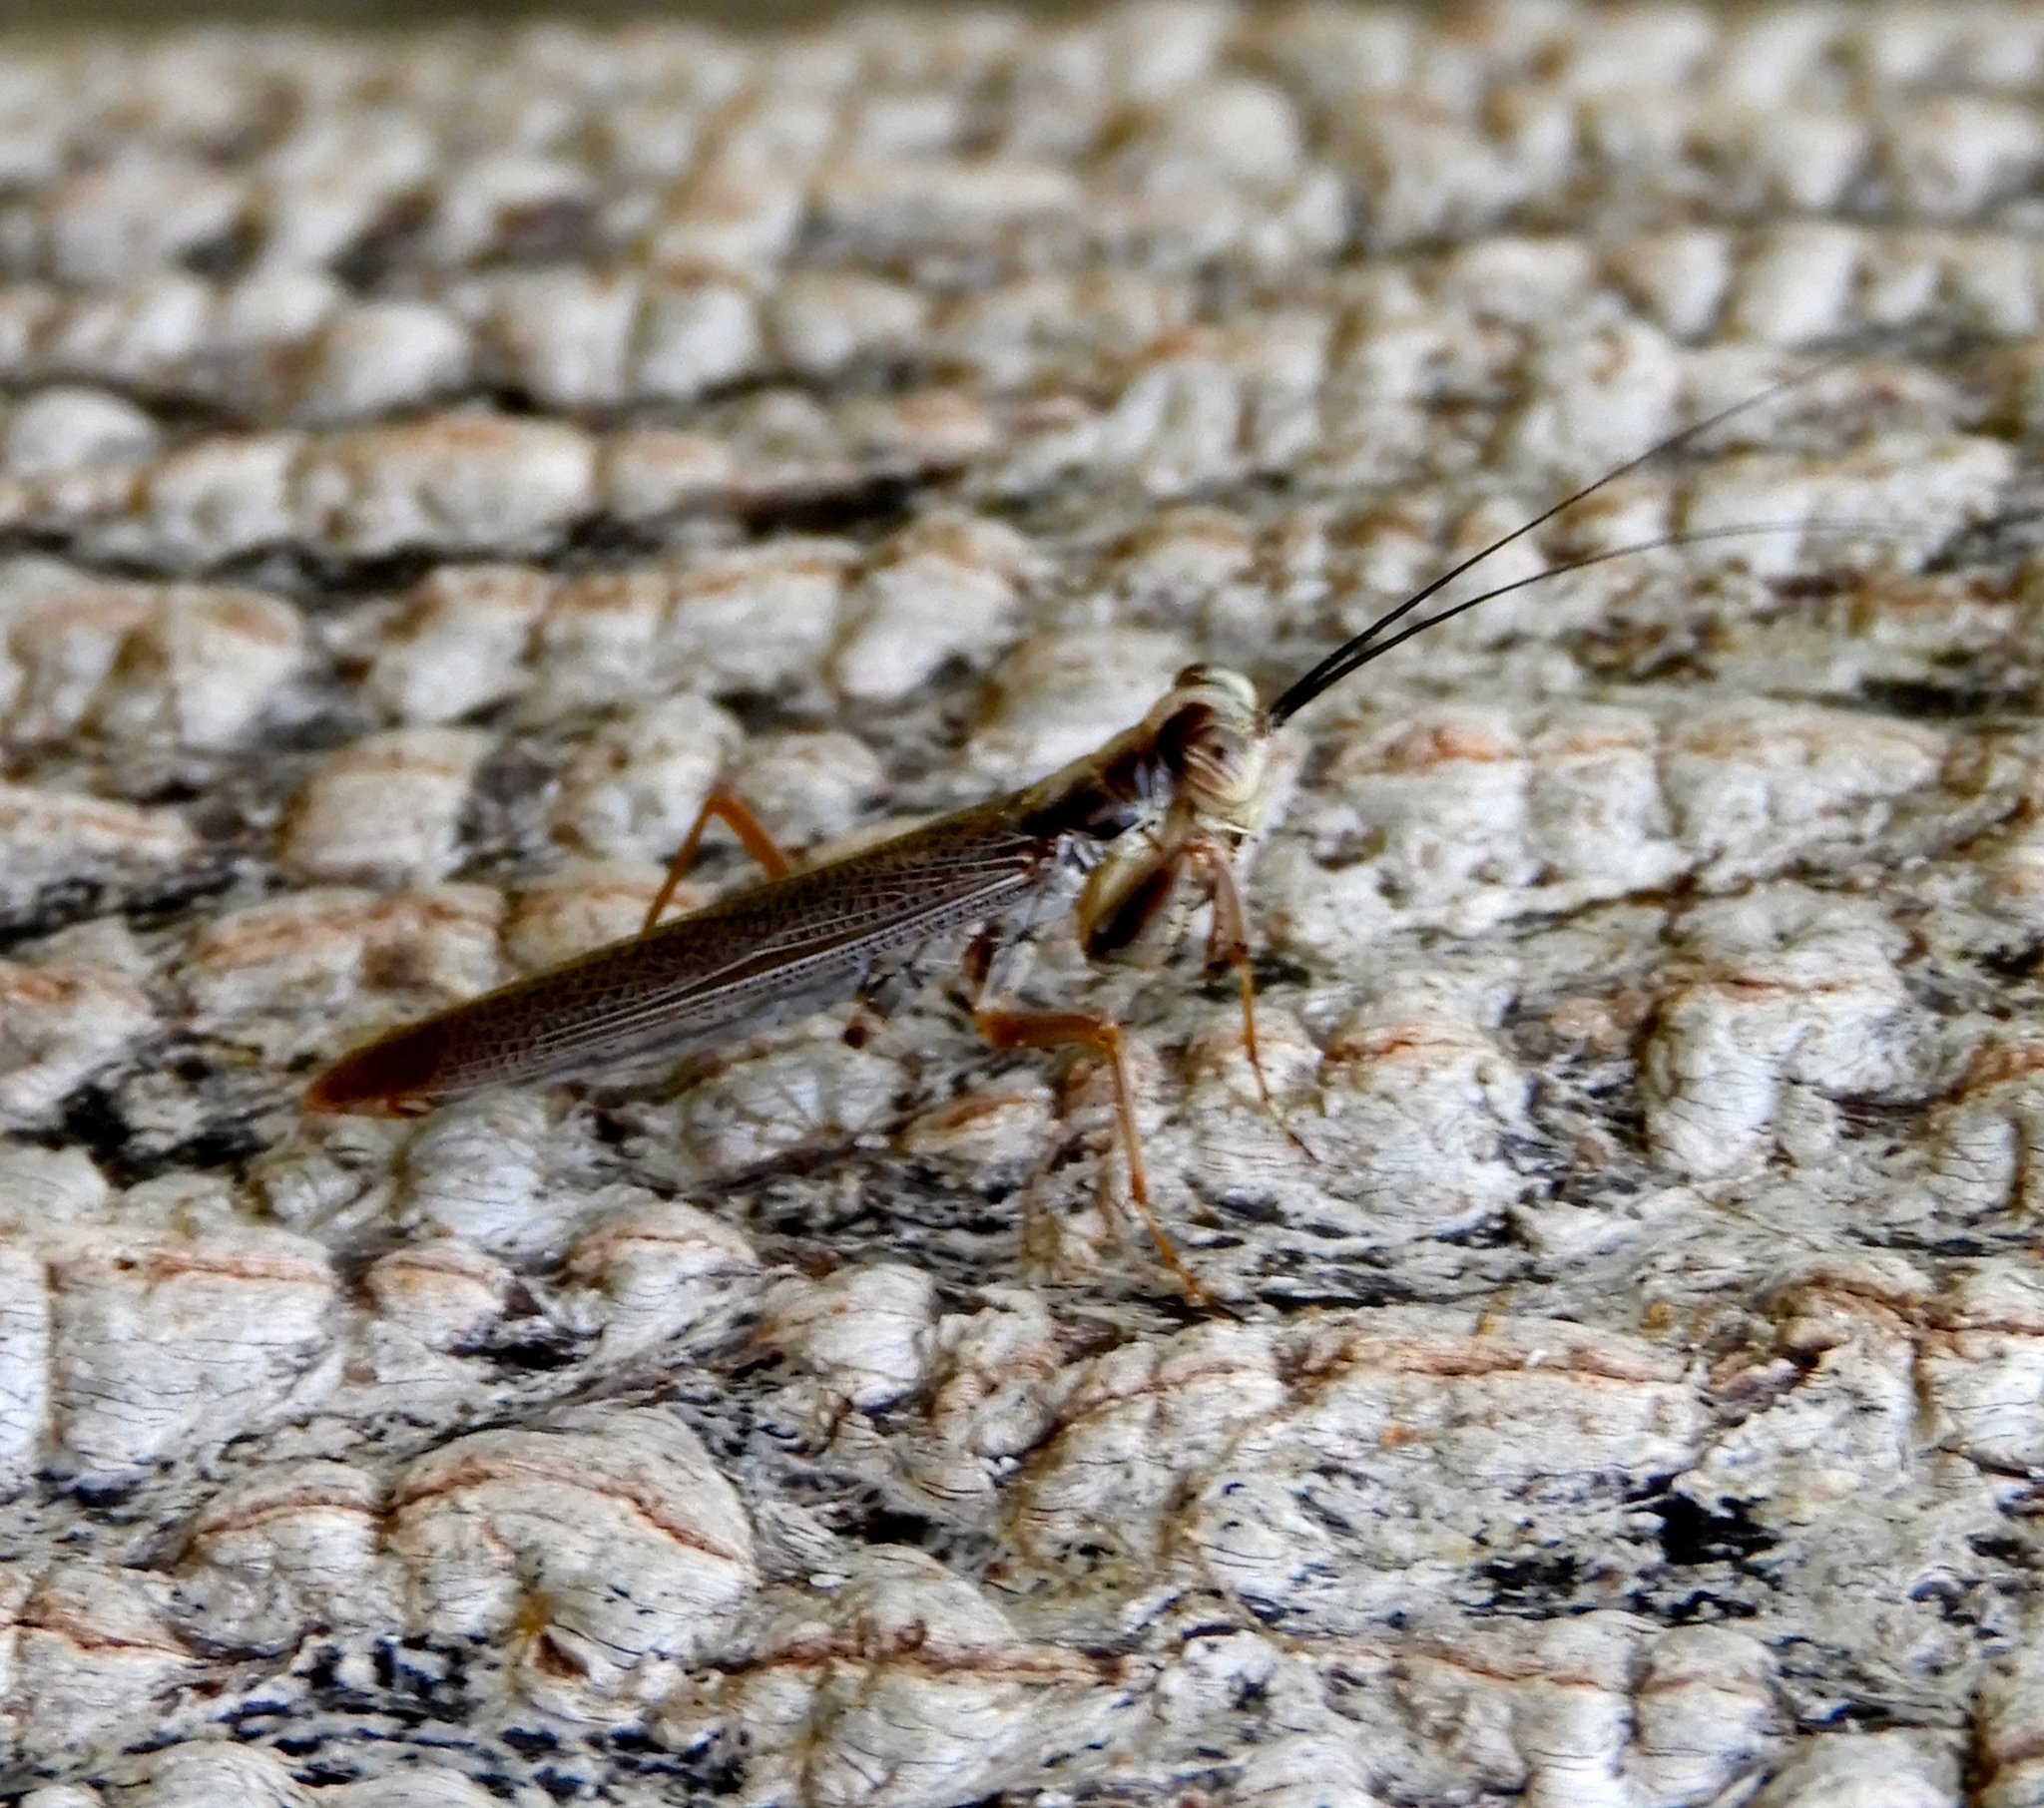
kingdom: Animalia
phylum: Arthropoda
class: Insecta
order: Mantodea
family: Mantoididae
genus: Mantoida
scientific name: Mantoida maya
